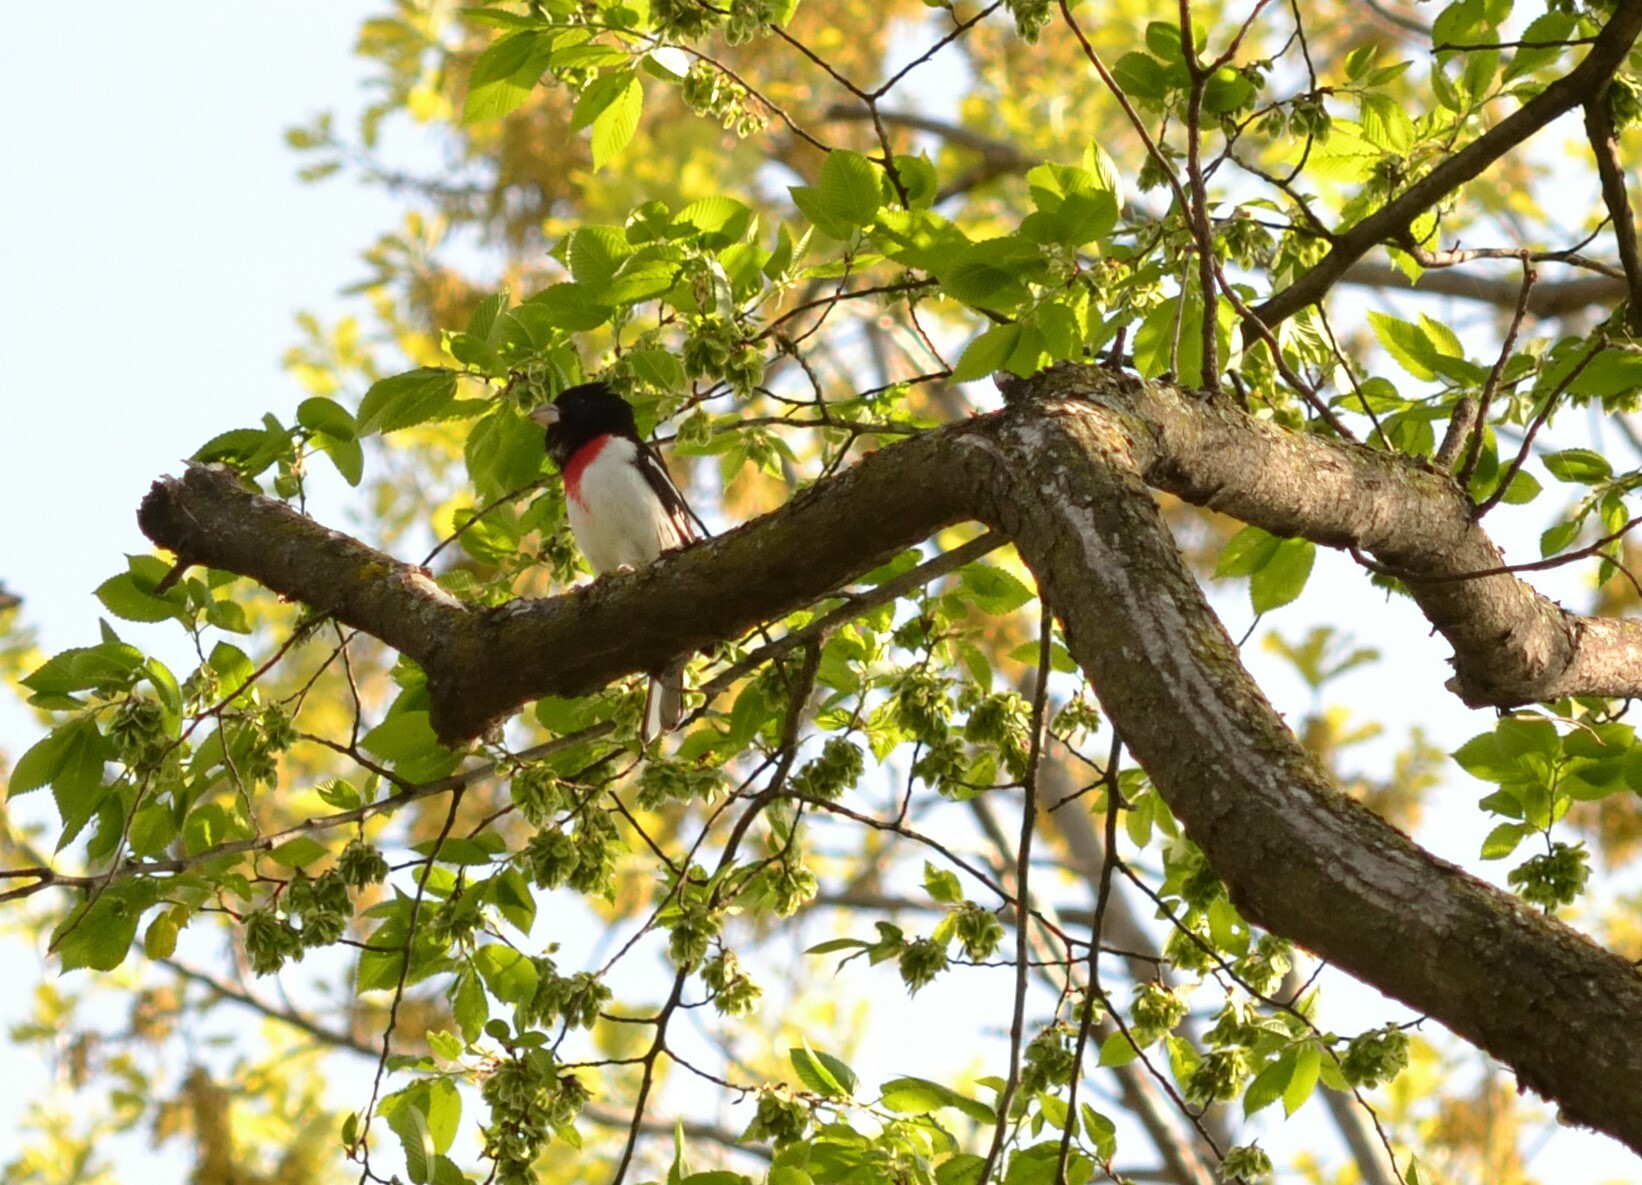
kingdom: Animalia
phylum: Chordata
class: Aves
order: Passeriformes
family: Cardinalidae
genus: Pheucticus
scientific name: Pheucticus ludovicianus
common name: Rose-breasted grosbeak
